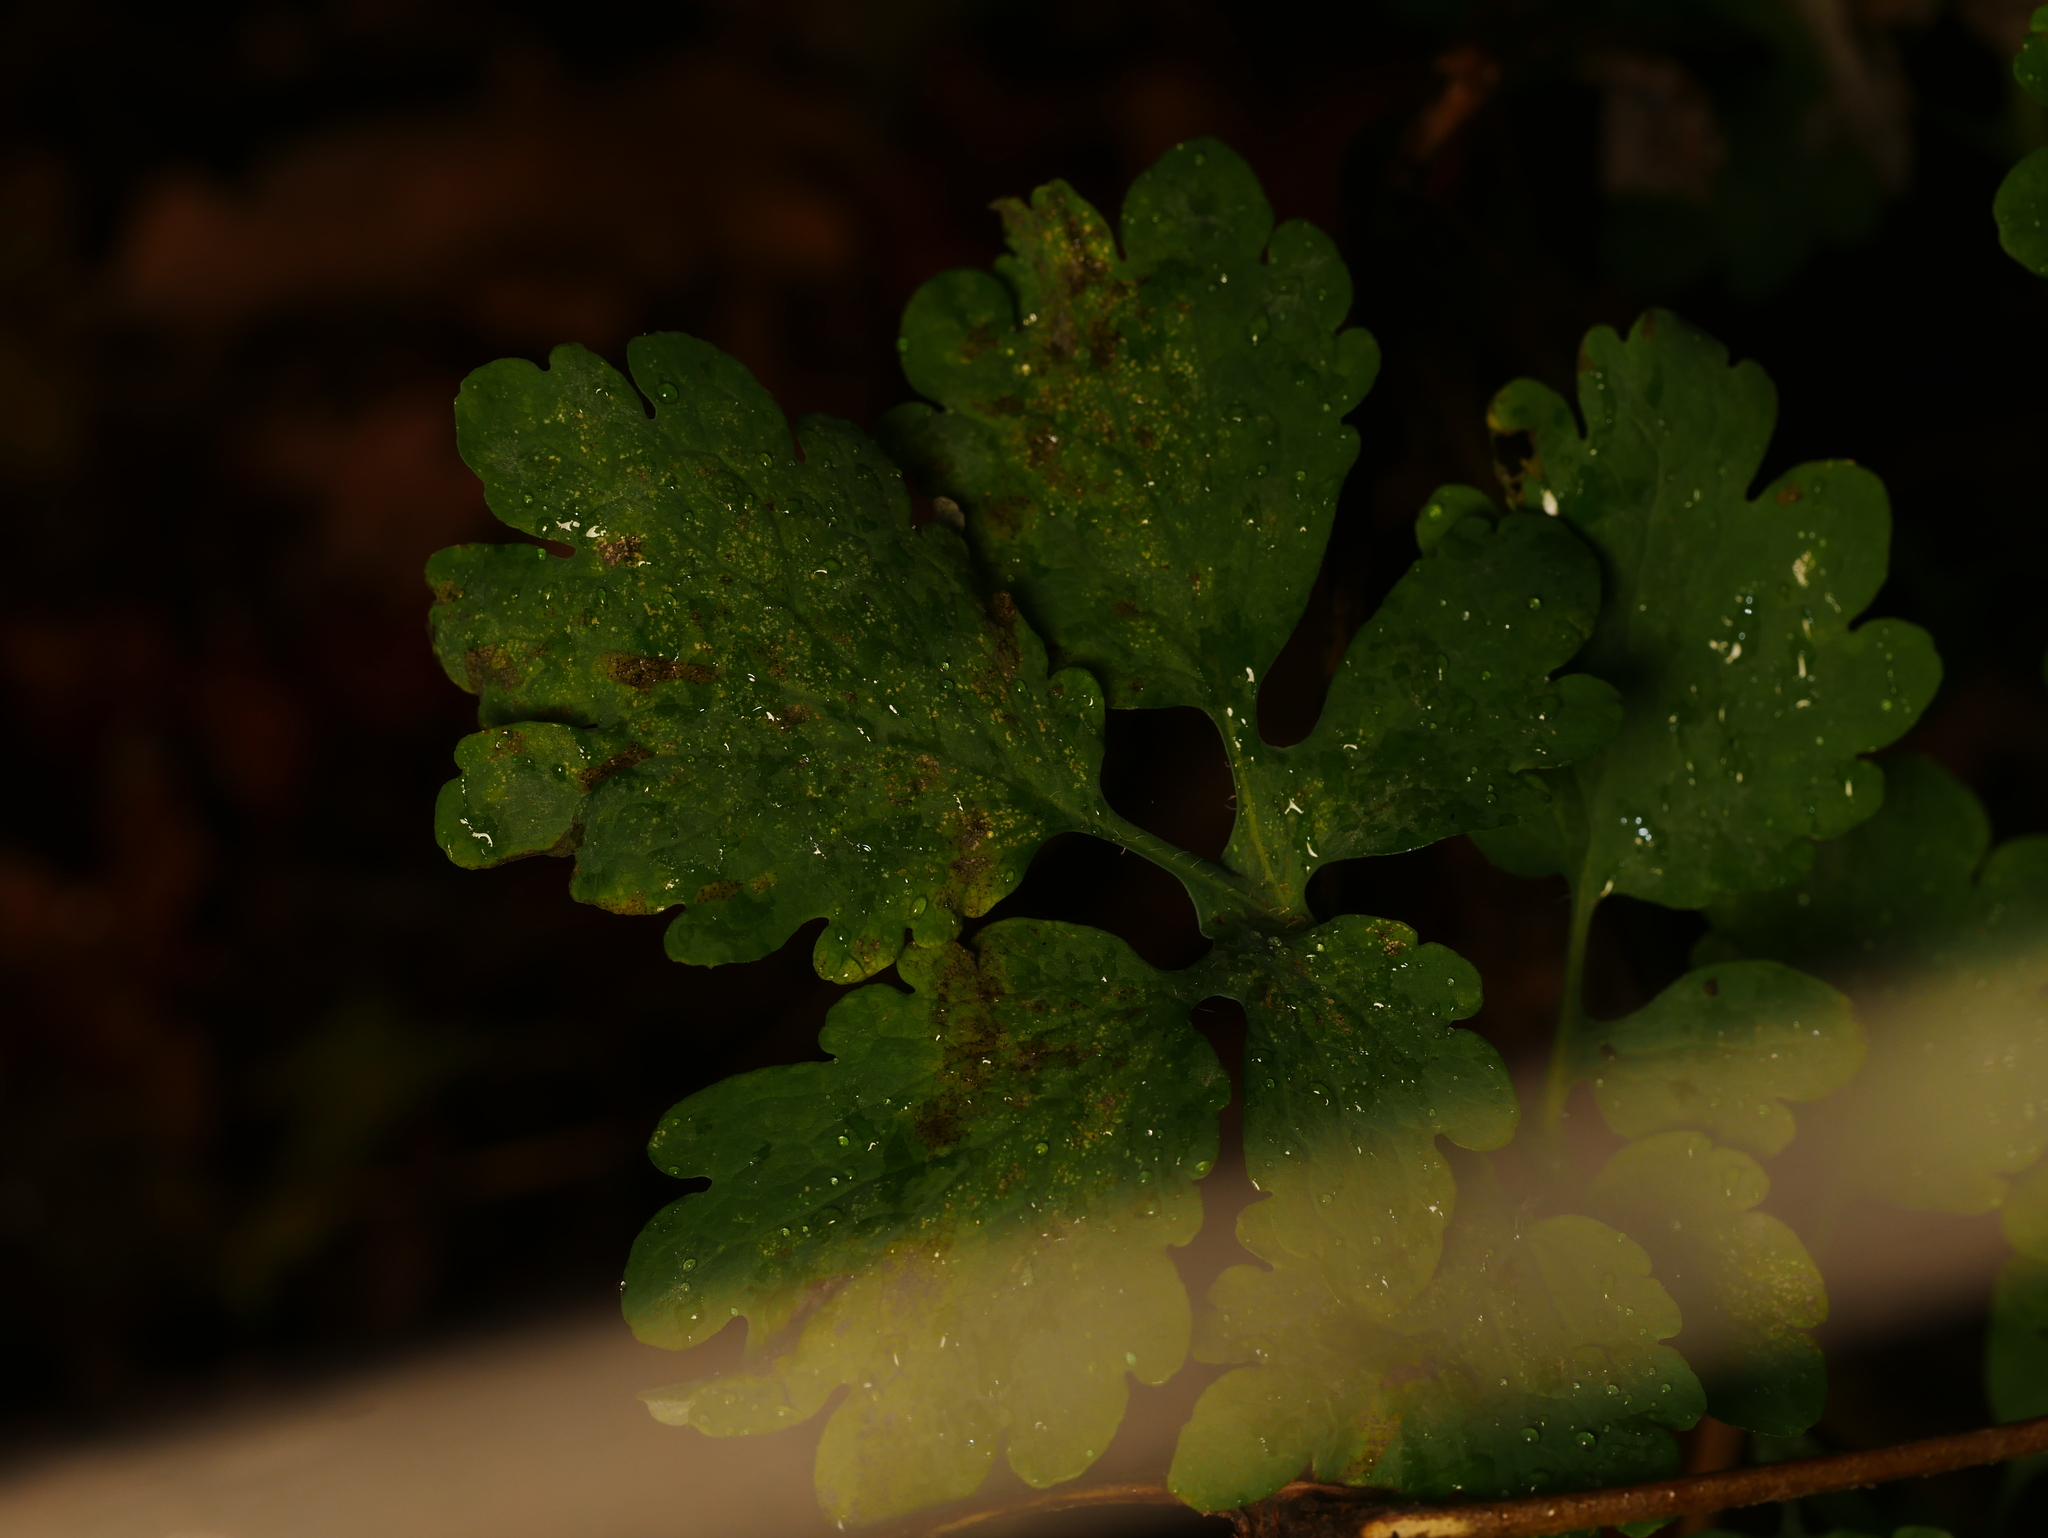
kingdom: Plantae
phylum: Tracheophyta
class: Magnoliopsida
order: Ranunculales
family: Papaveraceae
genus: Chelidonium
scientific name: Chelidonium majus
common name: Greater celandine
